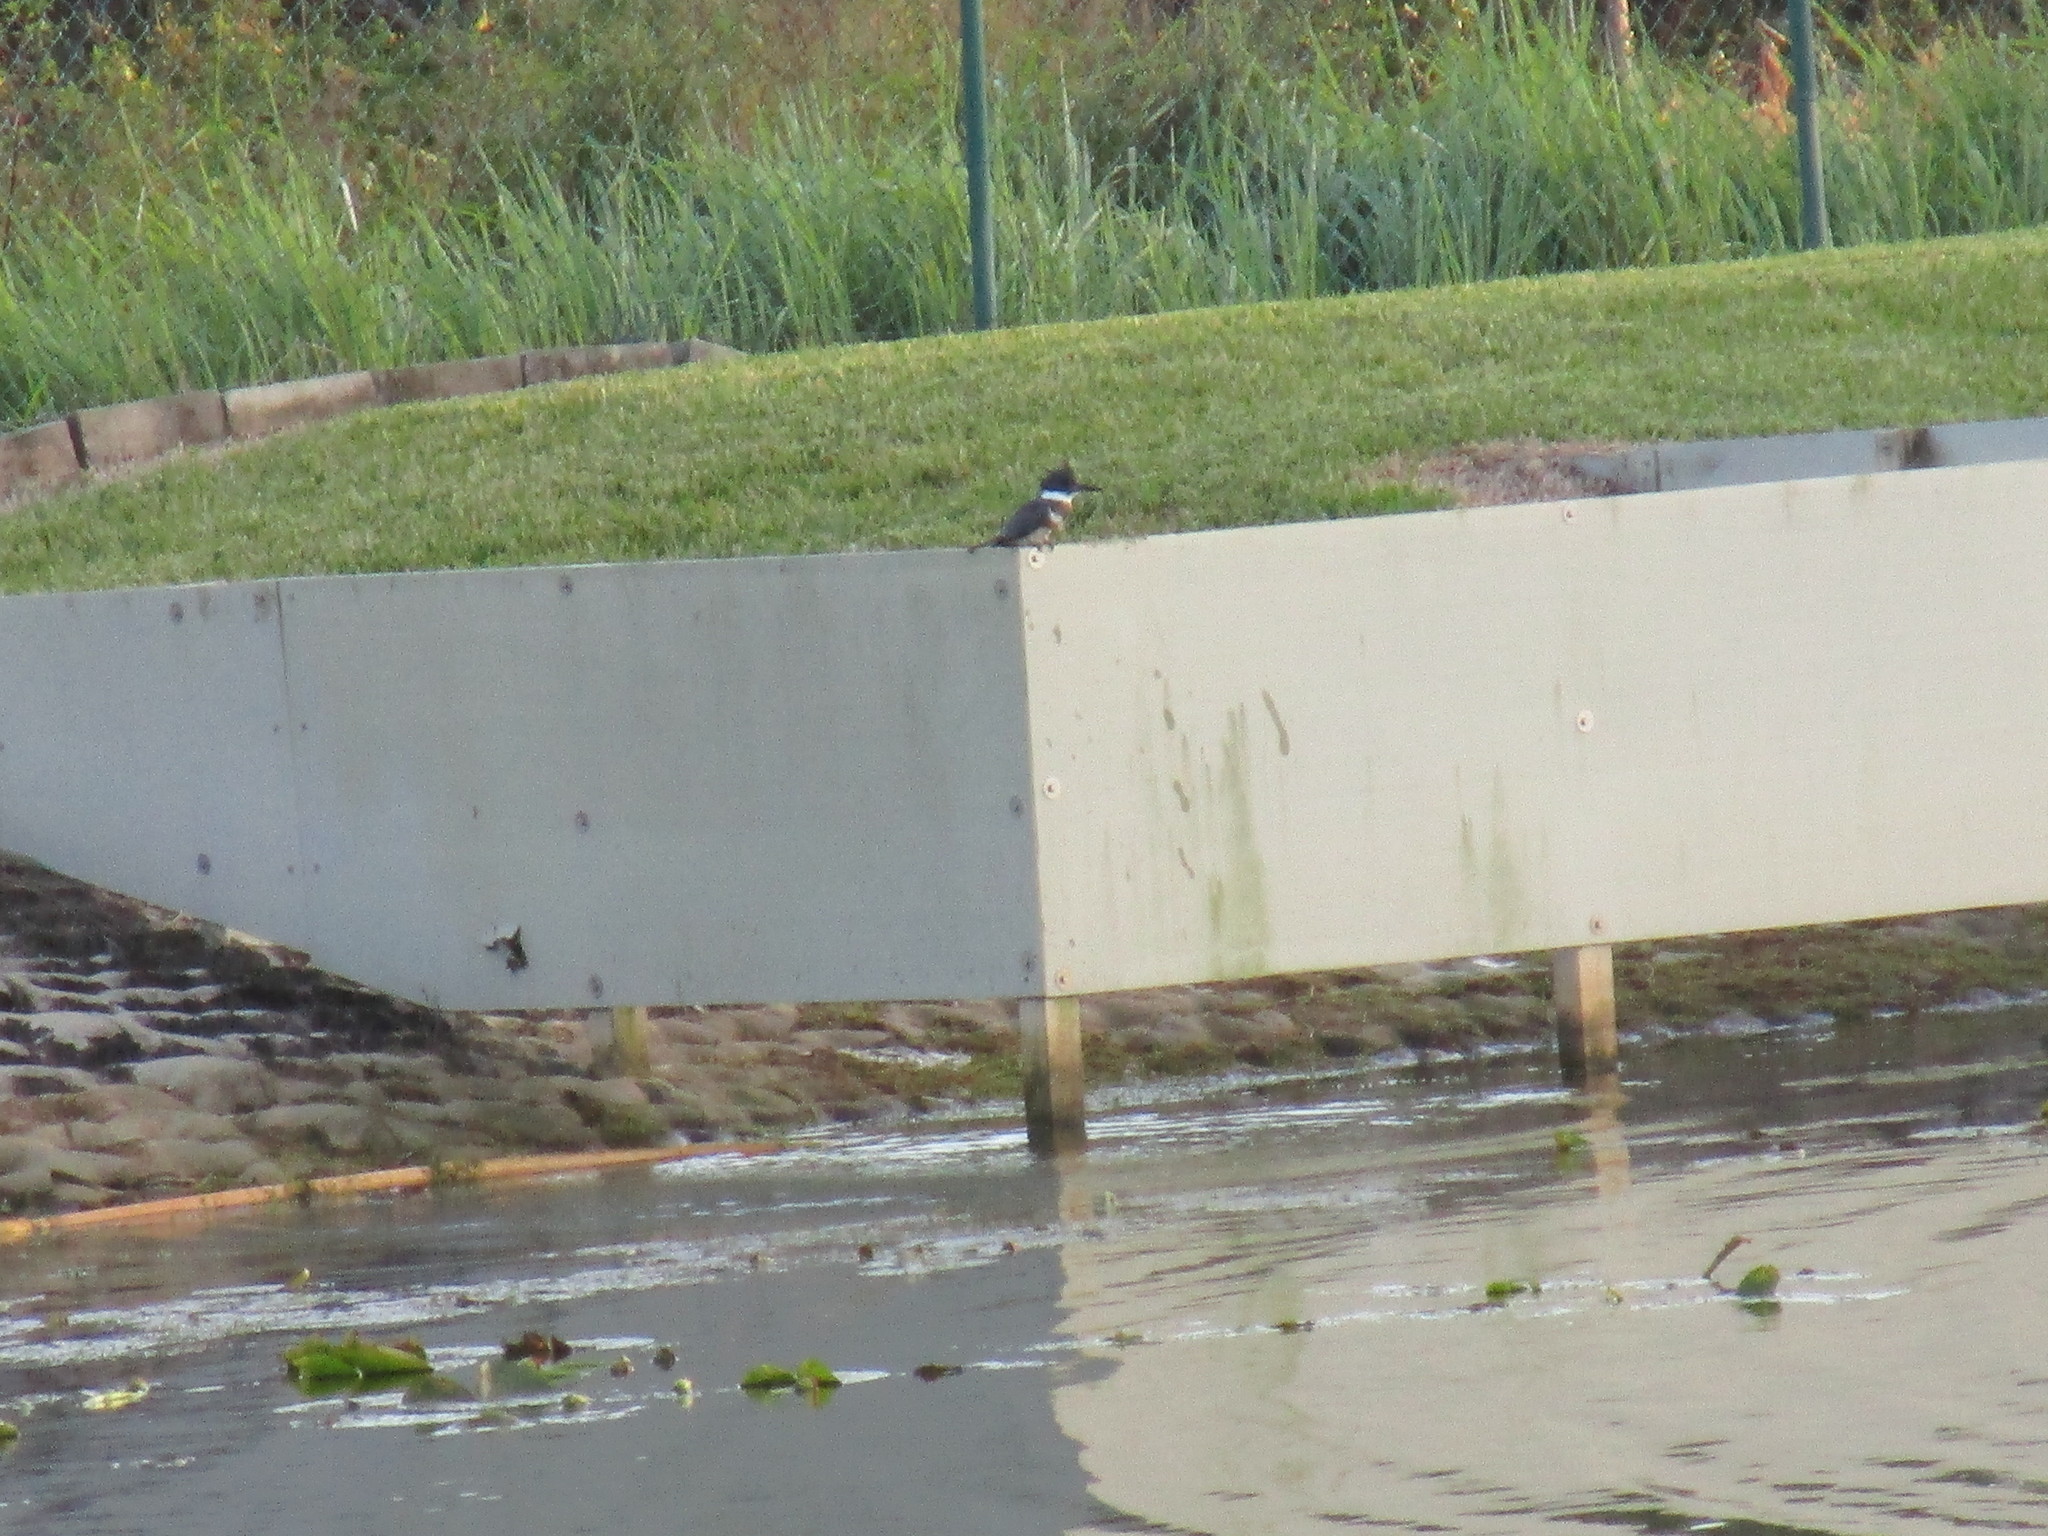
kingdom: Animalia
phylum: Chordata
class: Aves
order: Coraciiformes
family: Alcedinidae
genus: Megaceryle
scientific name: Megaceryle alcyon
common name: Belted kingfisher
